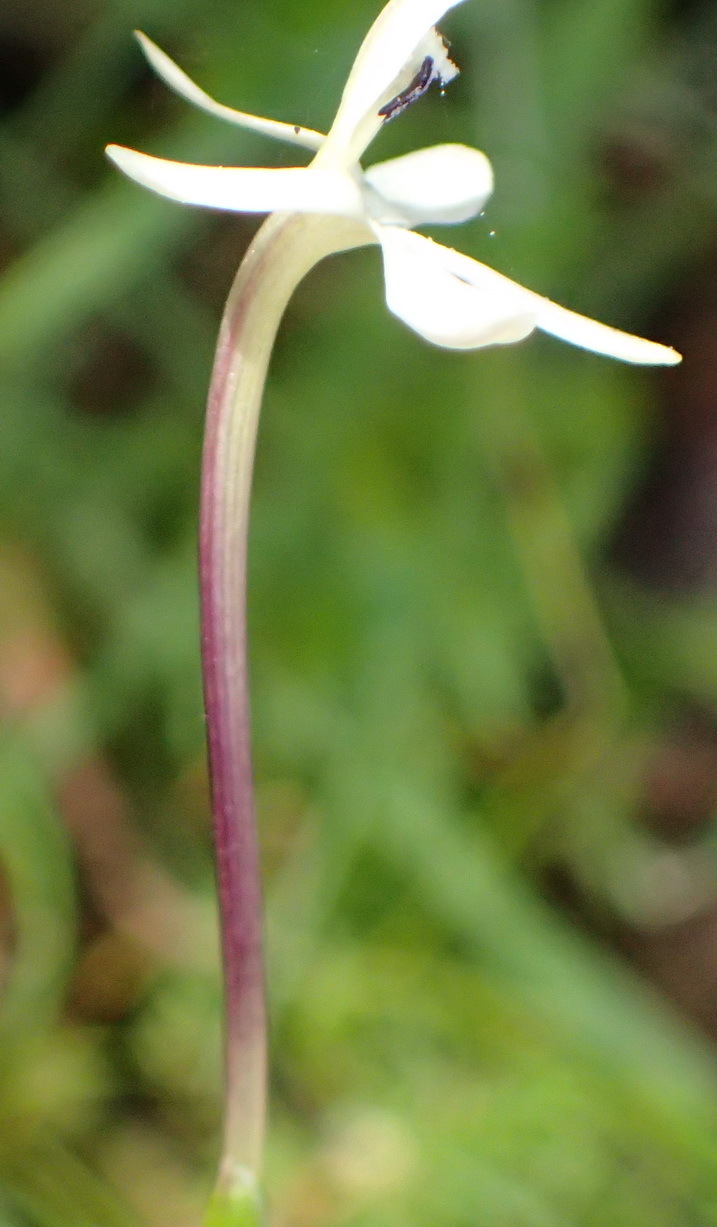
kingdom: Plantae
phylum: Tracheophyta
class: Liliopsida
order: Asparagales
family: Iridaceae
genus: Xenoscapa
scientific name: Xenoscapa fistulosa
